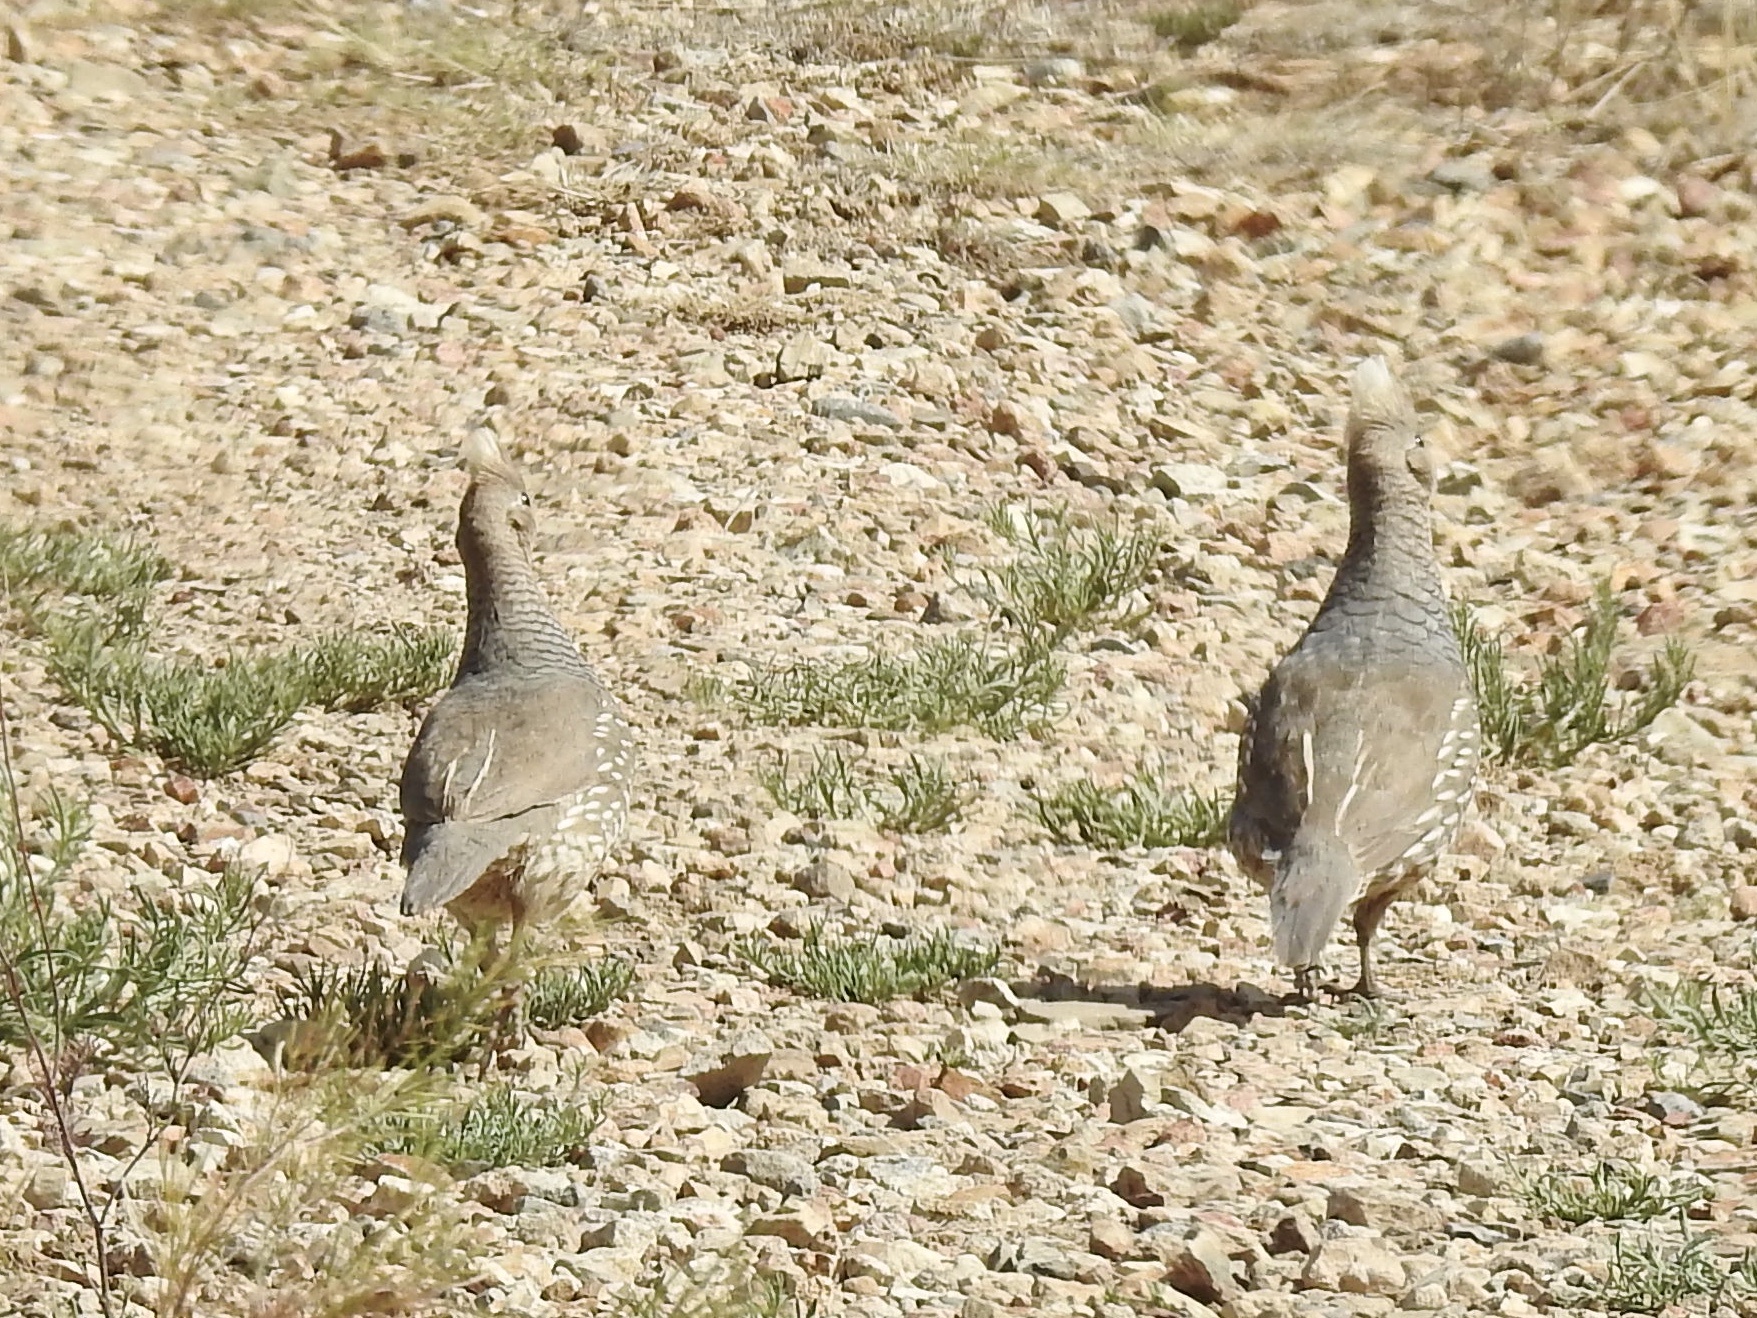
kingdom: Animalia
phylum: Chordata
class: Aves
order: Galliformes
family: Odontophoridae
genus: Callipepla
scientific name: Callipepla squamata
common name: Scaled quail
